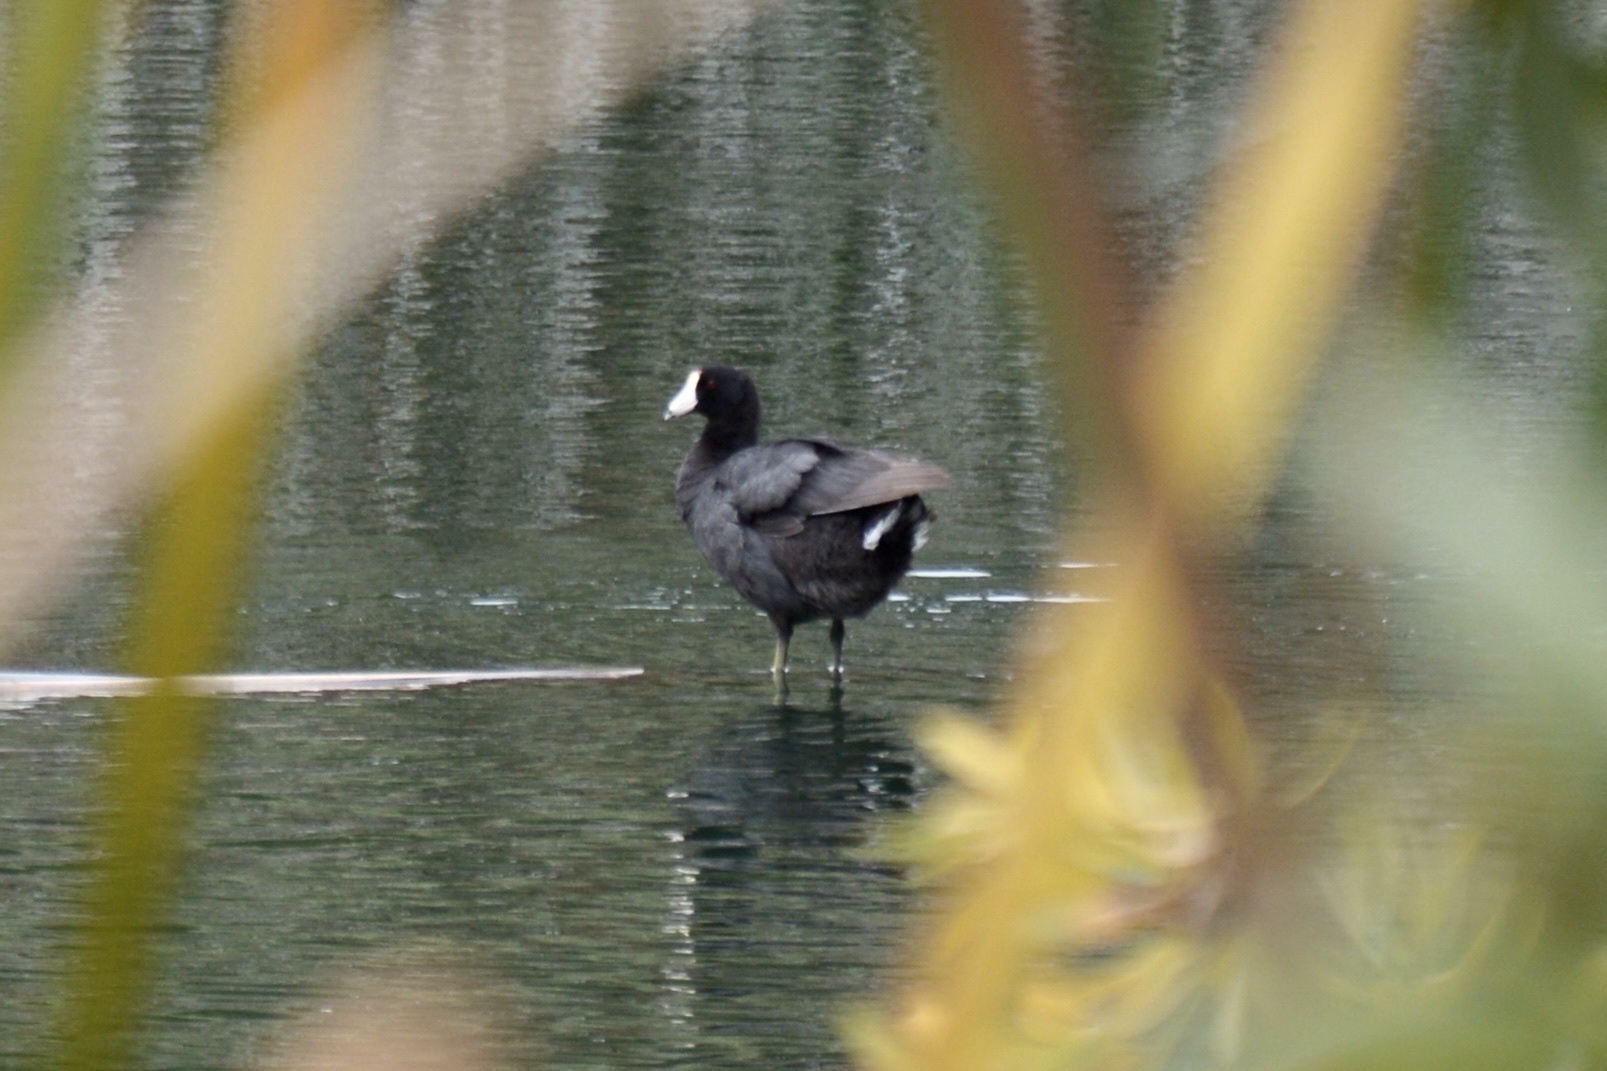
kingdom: Animalia
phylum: Chordata
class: Aves
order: Gruiformes
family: Rallidae
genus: Fulica
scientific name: Fulica americana
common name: American coot
